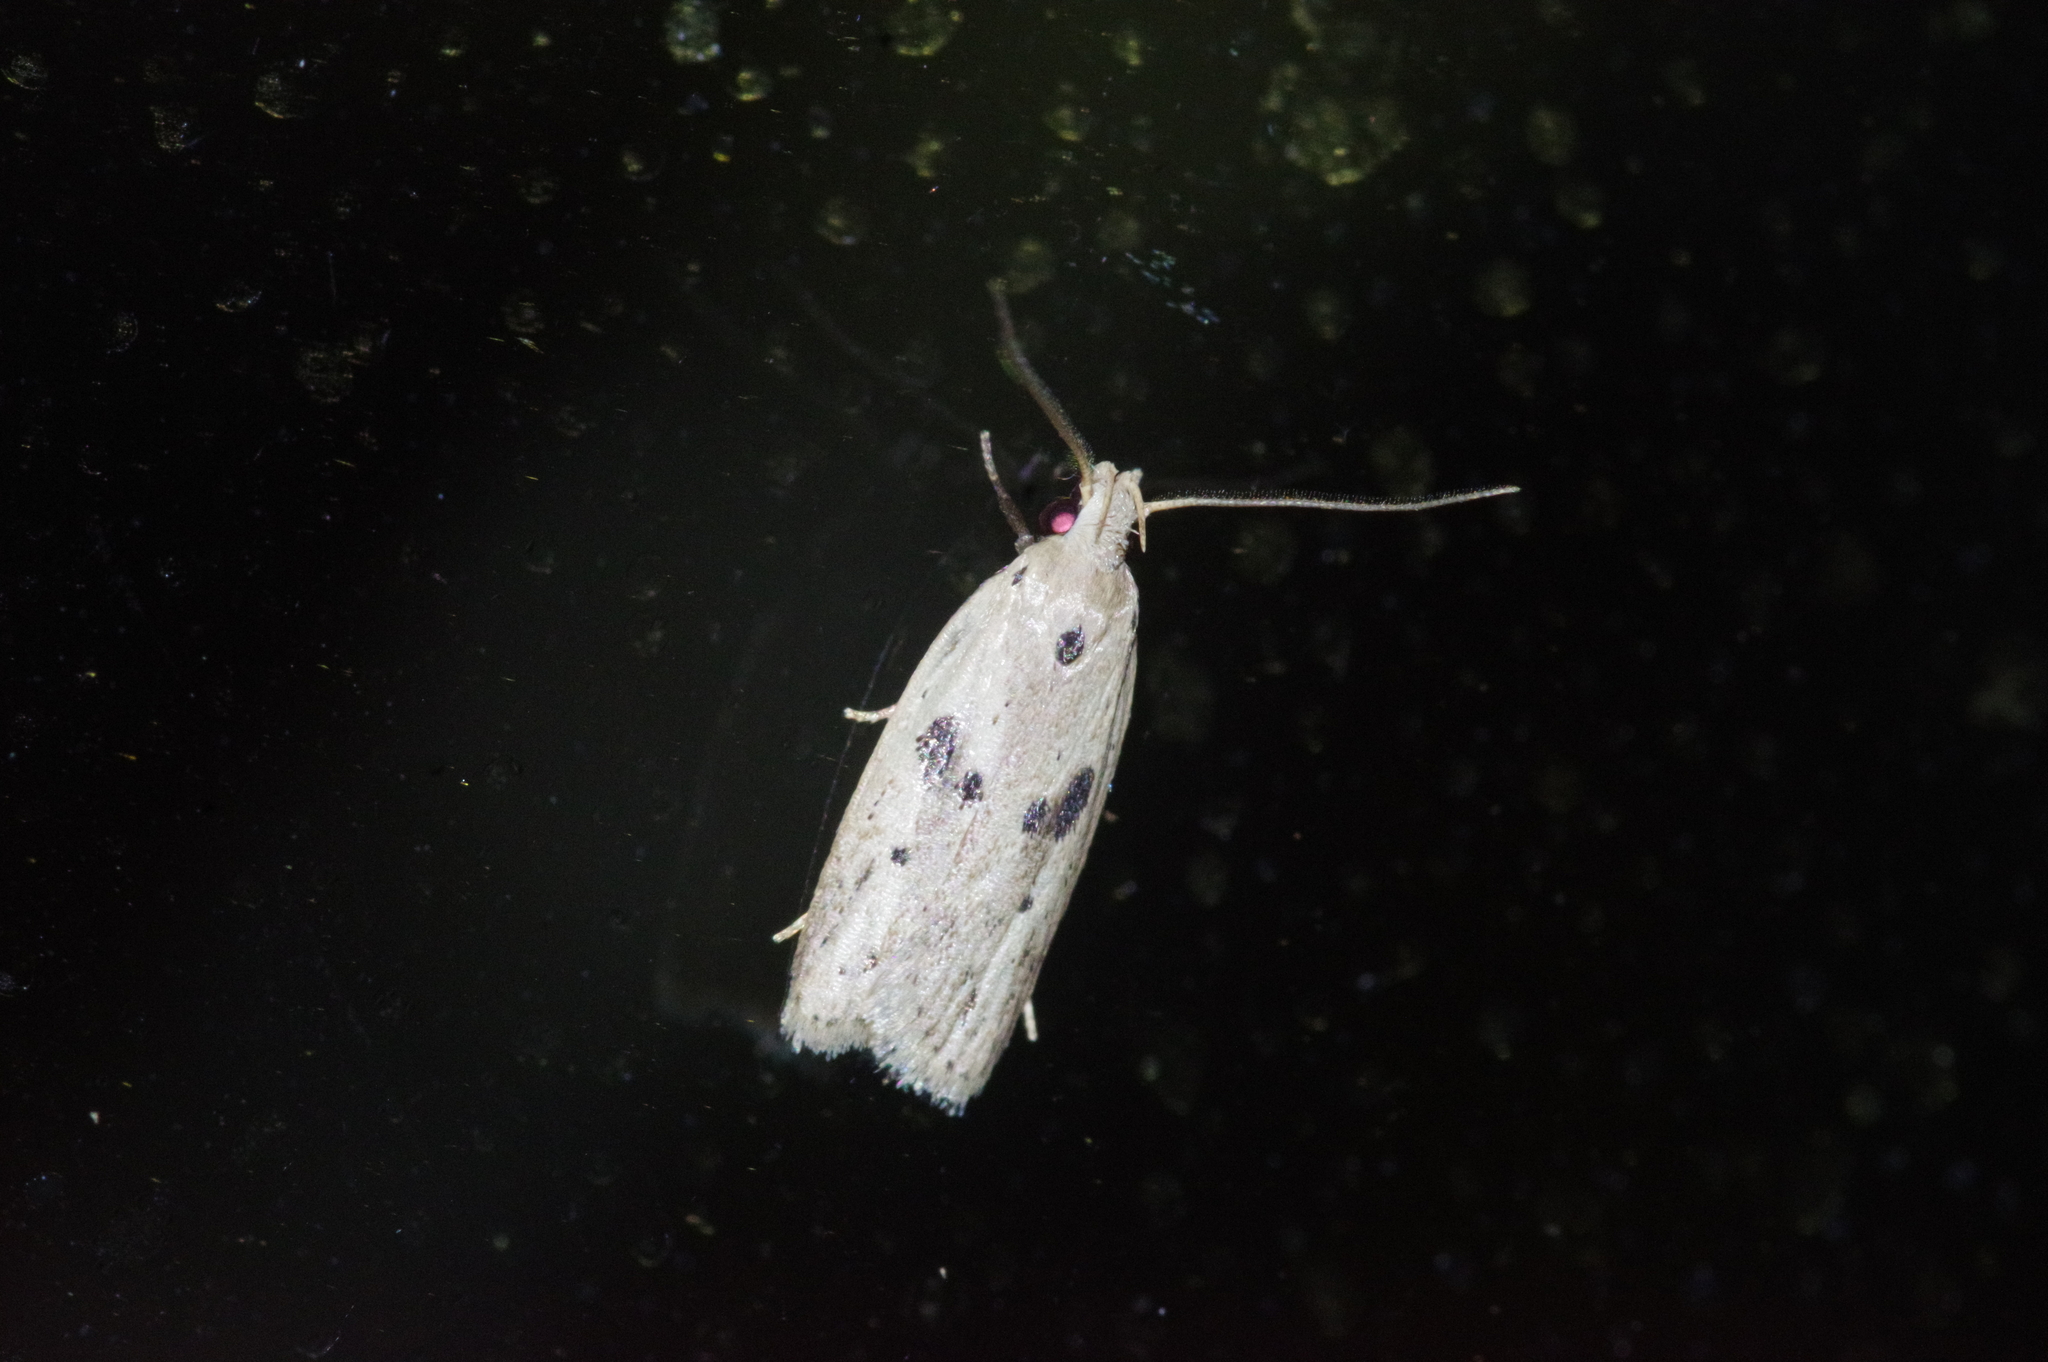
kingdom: Animalia
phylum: Arthropoda
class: Insecta
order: Lepidoptera
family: Peleopodidae
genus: Scythropiodes
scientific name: Scythropiodes issikii
